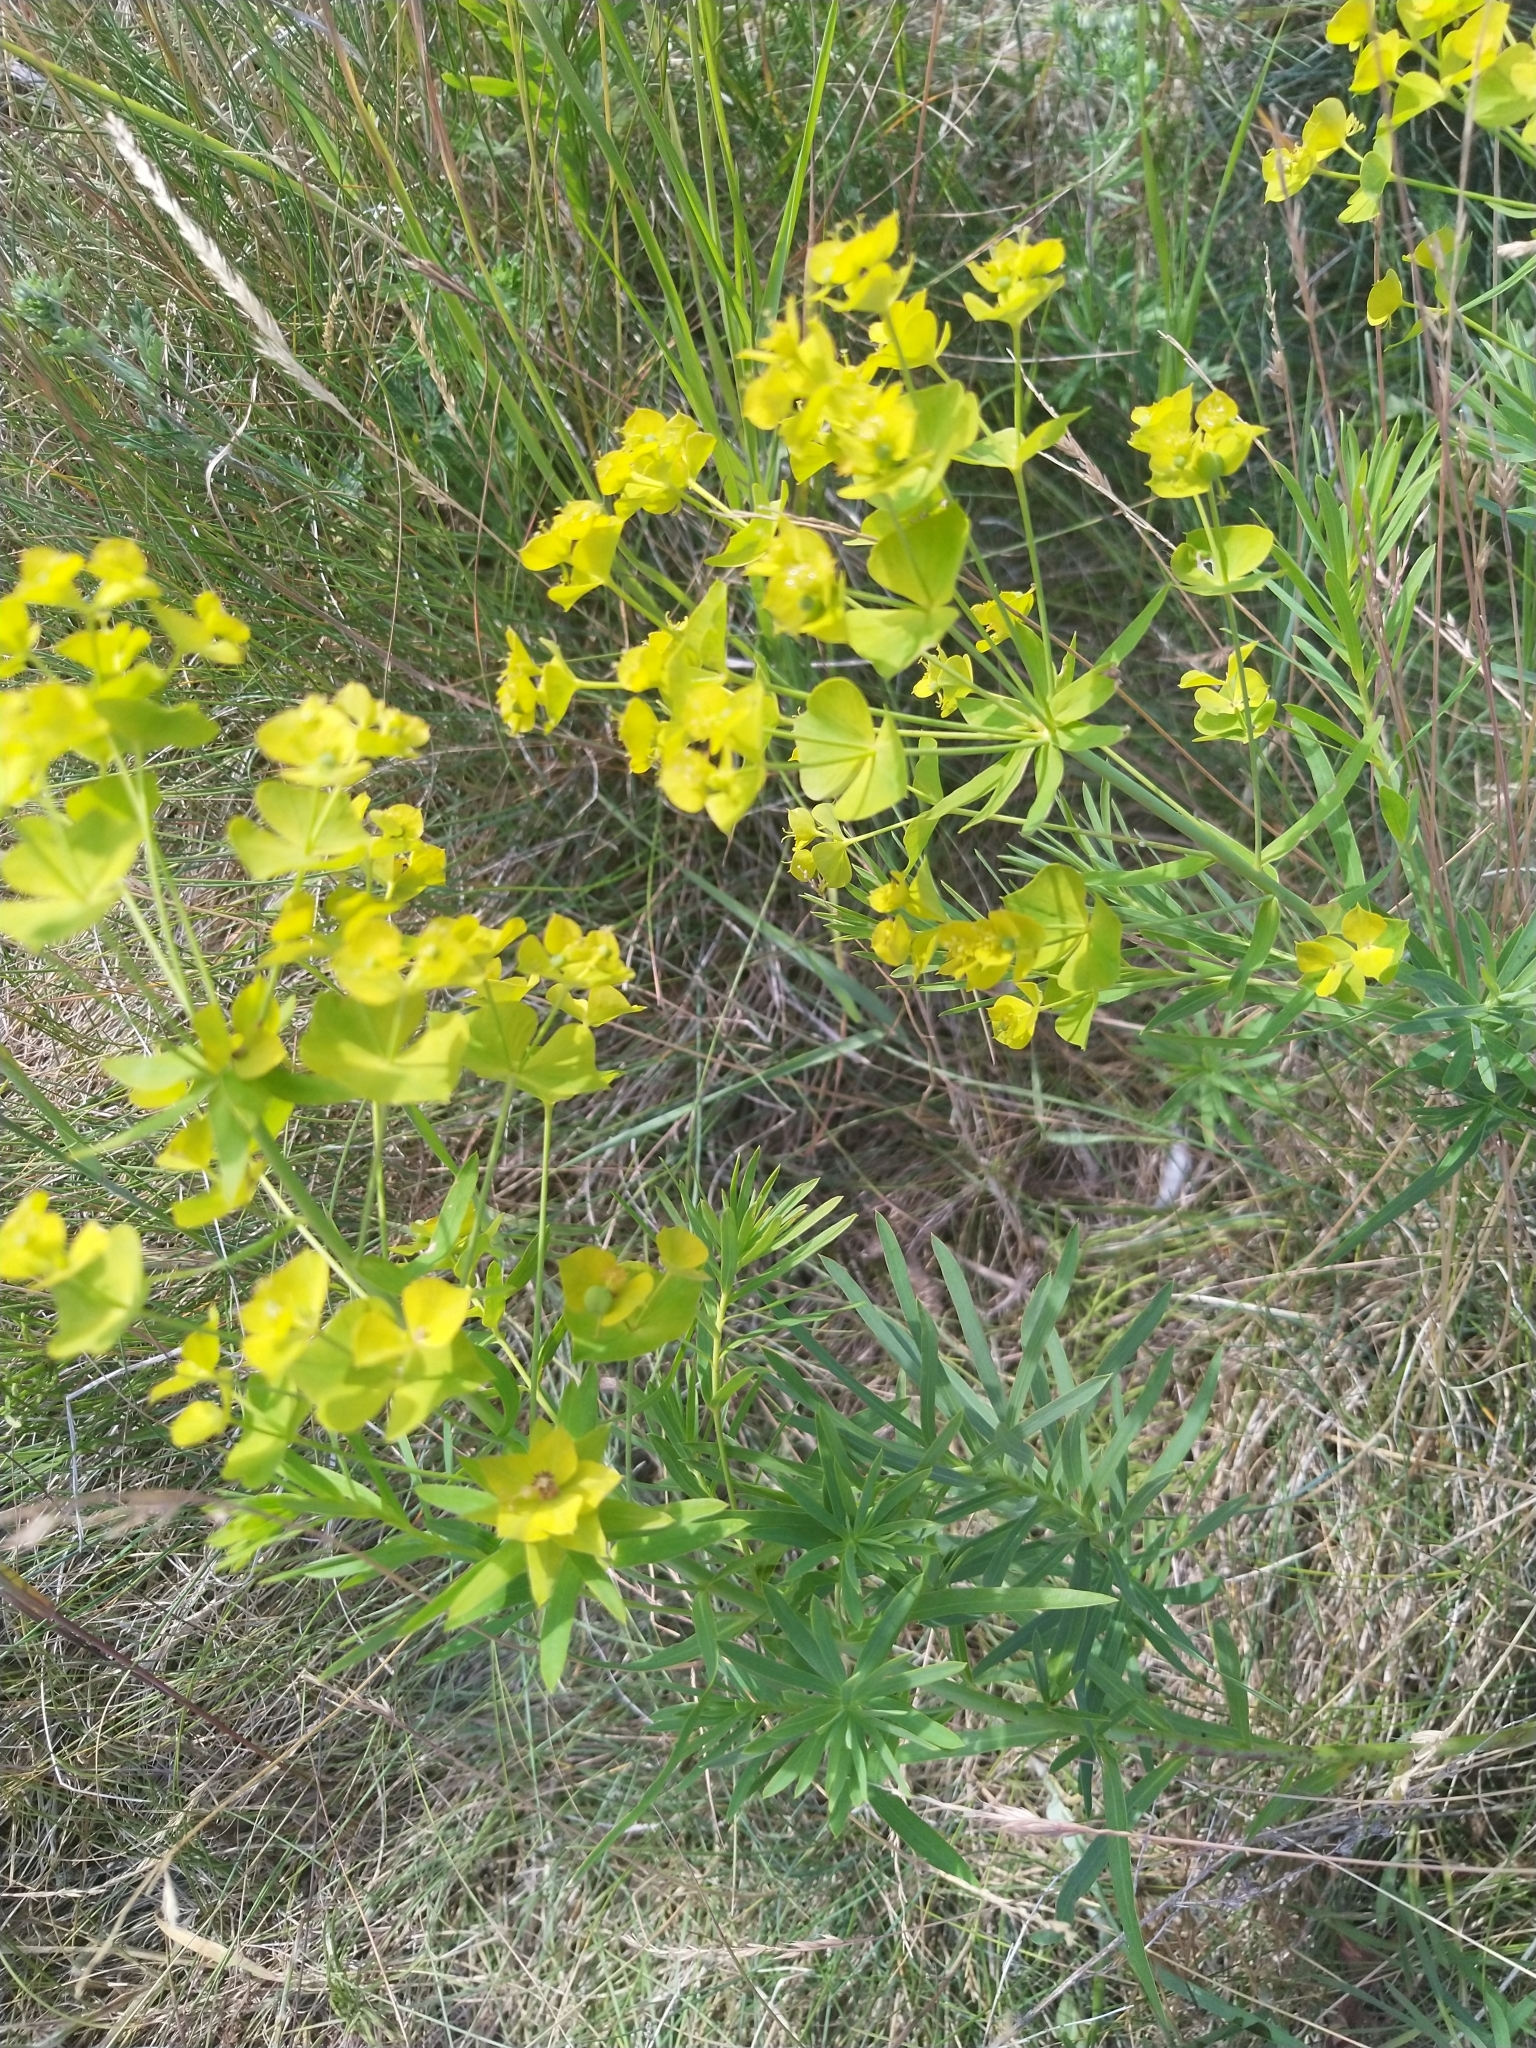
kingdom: Plantae
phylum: Tracheophyta
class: Magnoliopsida
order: Malpighiales
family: Euphorbiaceae
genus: Euphorbia
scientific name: Euphorbia esula
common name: Leafy spurge
